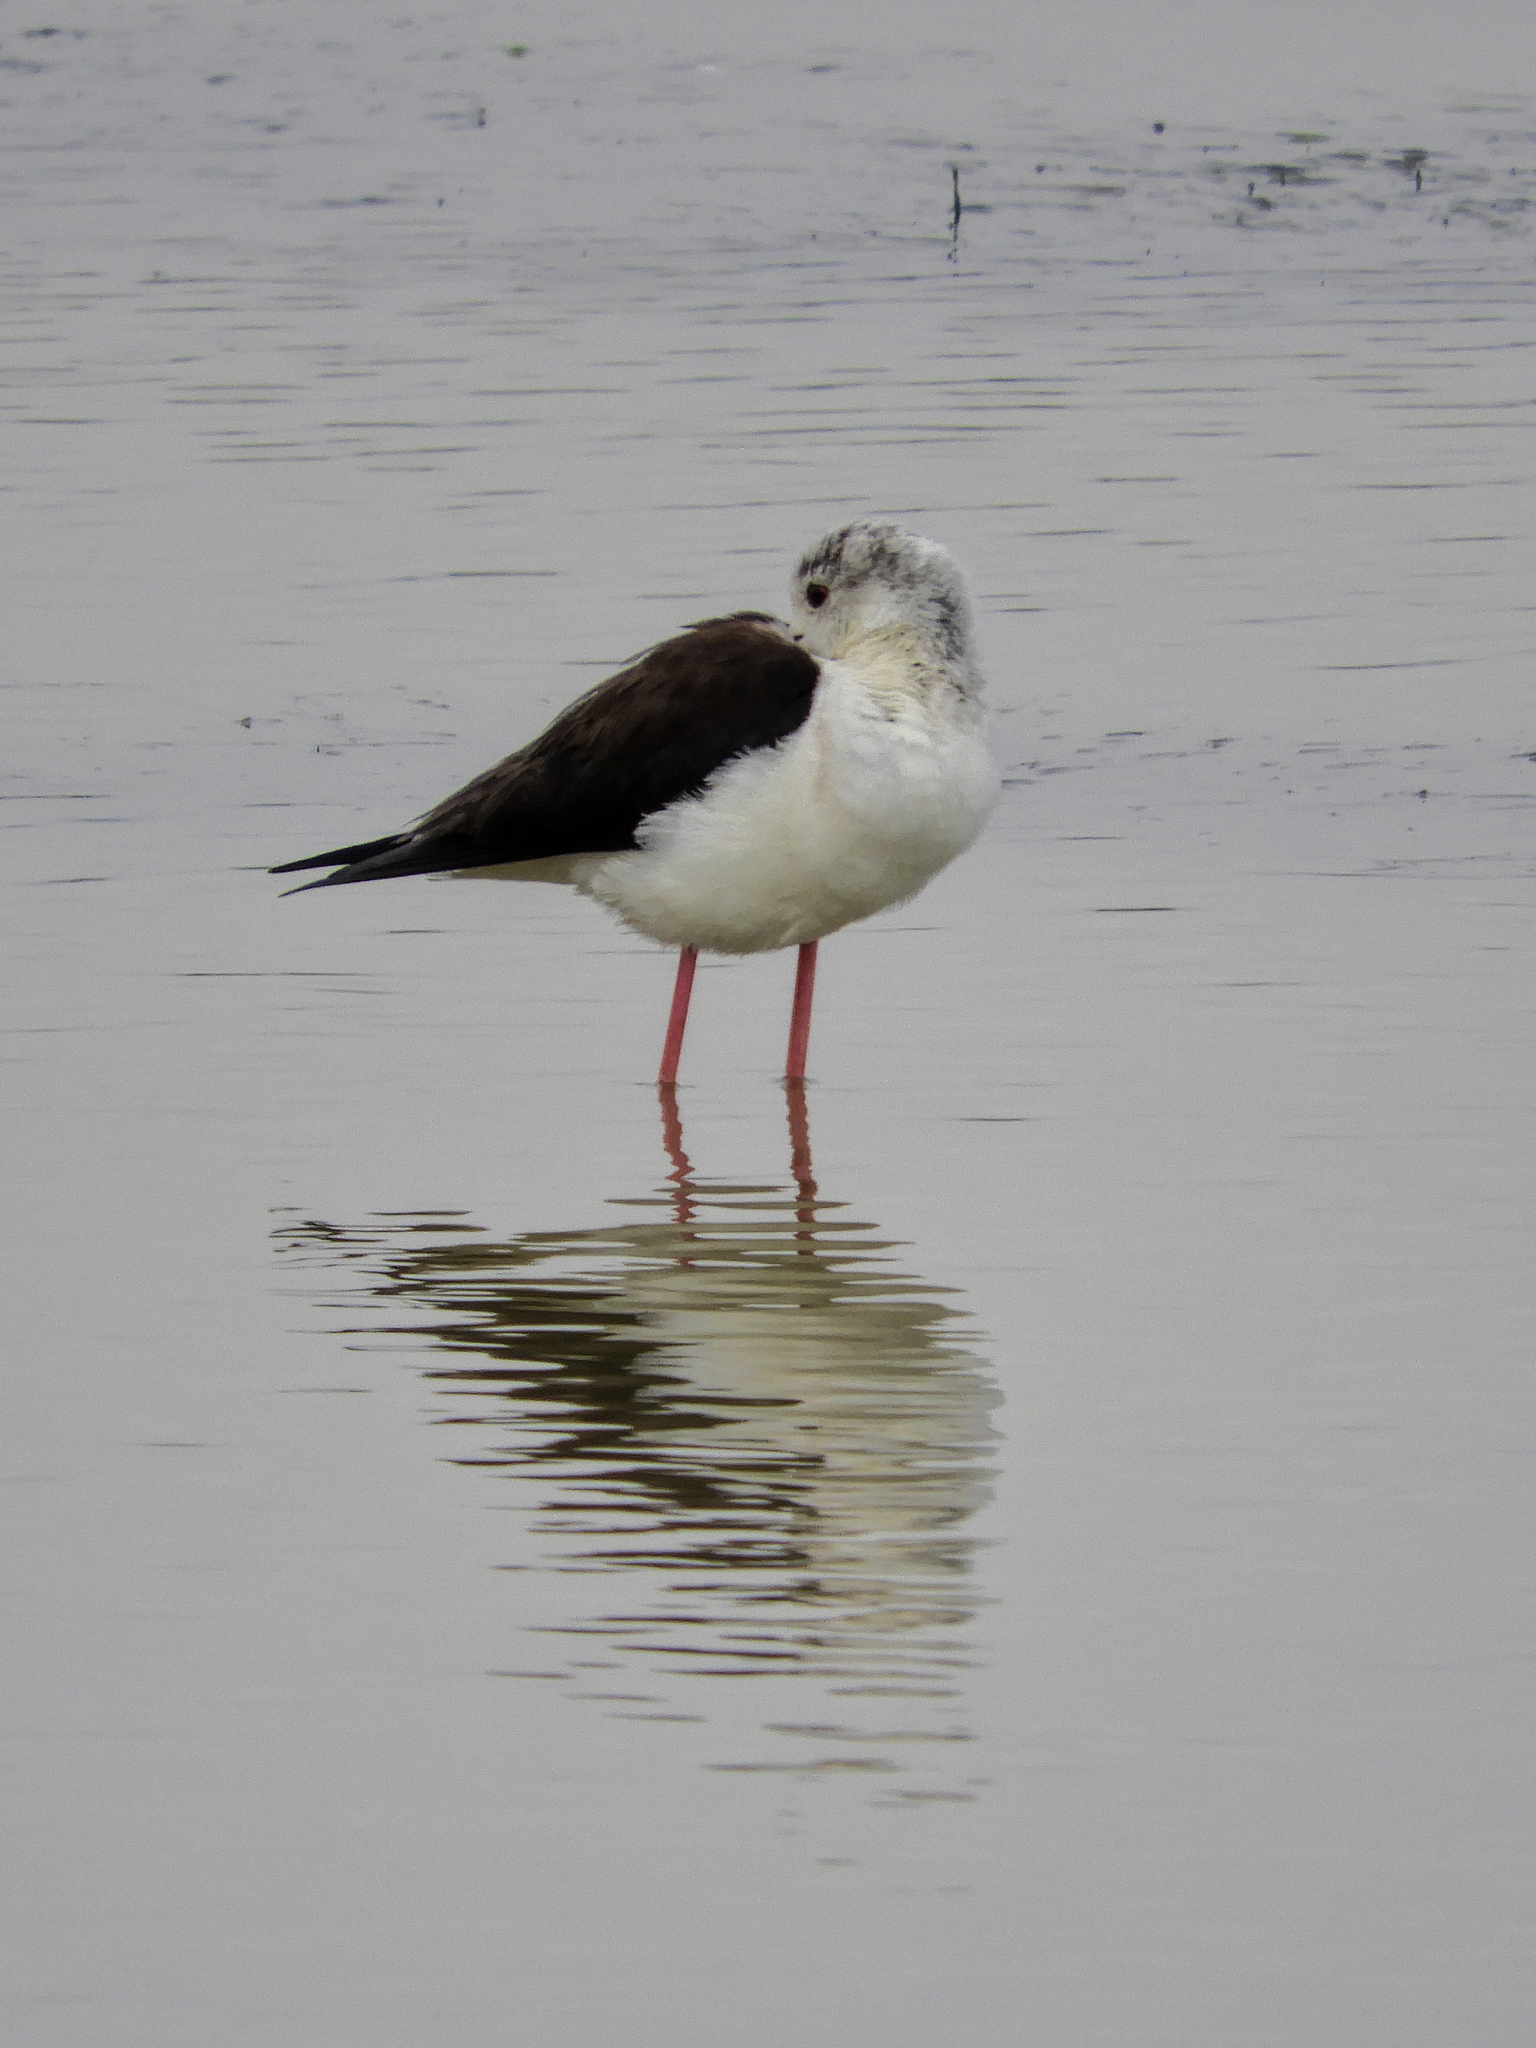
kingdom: Animalia
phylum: Chordata
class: Aves
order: Charadriiformes
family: Recurvirostridae
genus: Himantopus
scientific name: Himantopus himantopus
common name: Black-winged stilt
